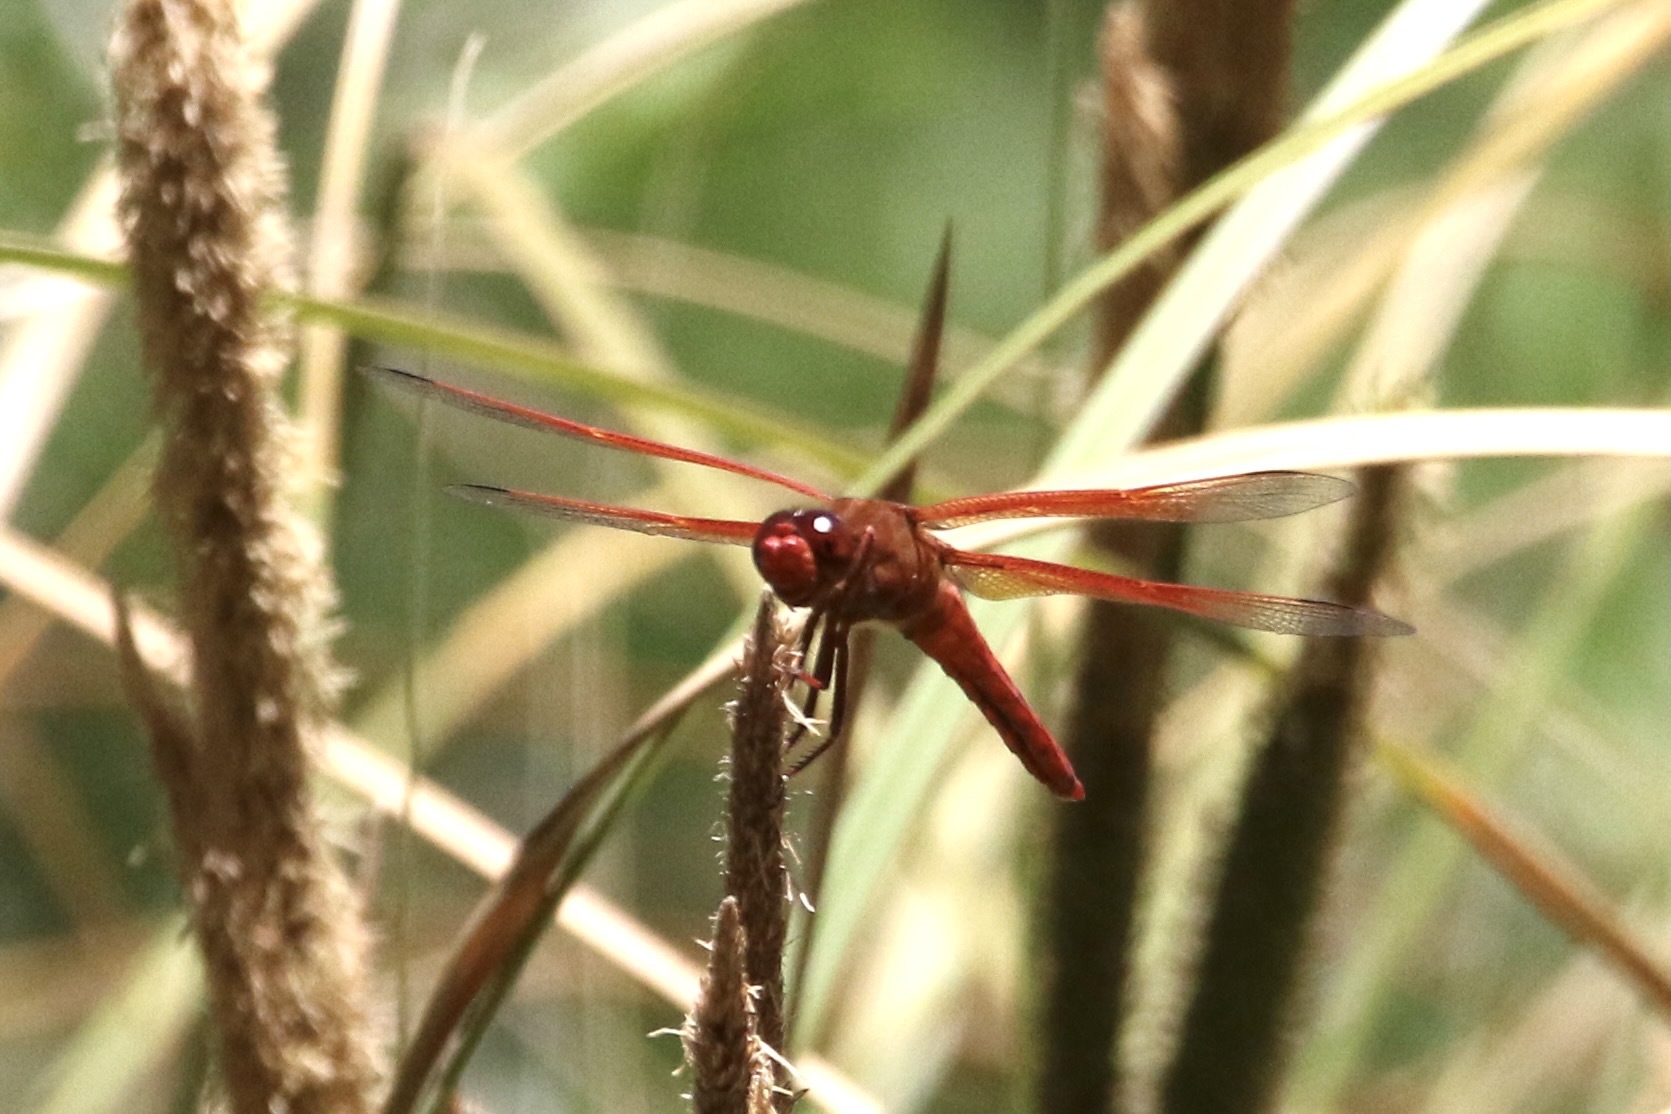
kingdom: Animalia
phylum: Arthropoda
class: Insecta
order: Odonata
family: Libellulidae
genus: Libellula
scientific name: Libellula saturata
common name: Flame skimmer
